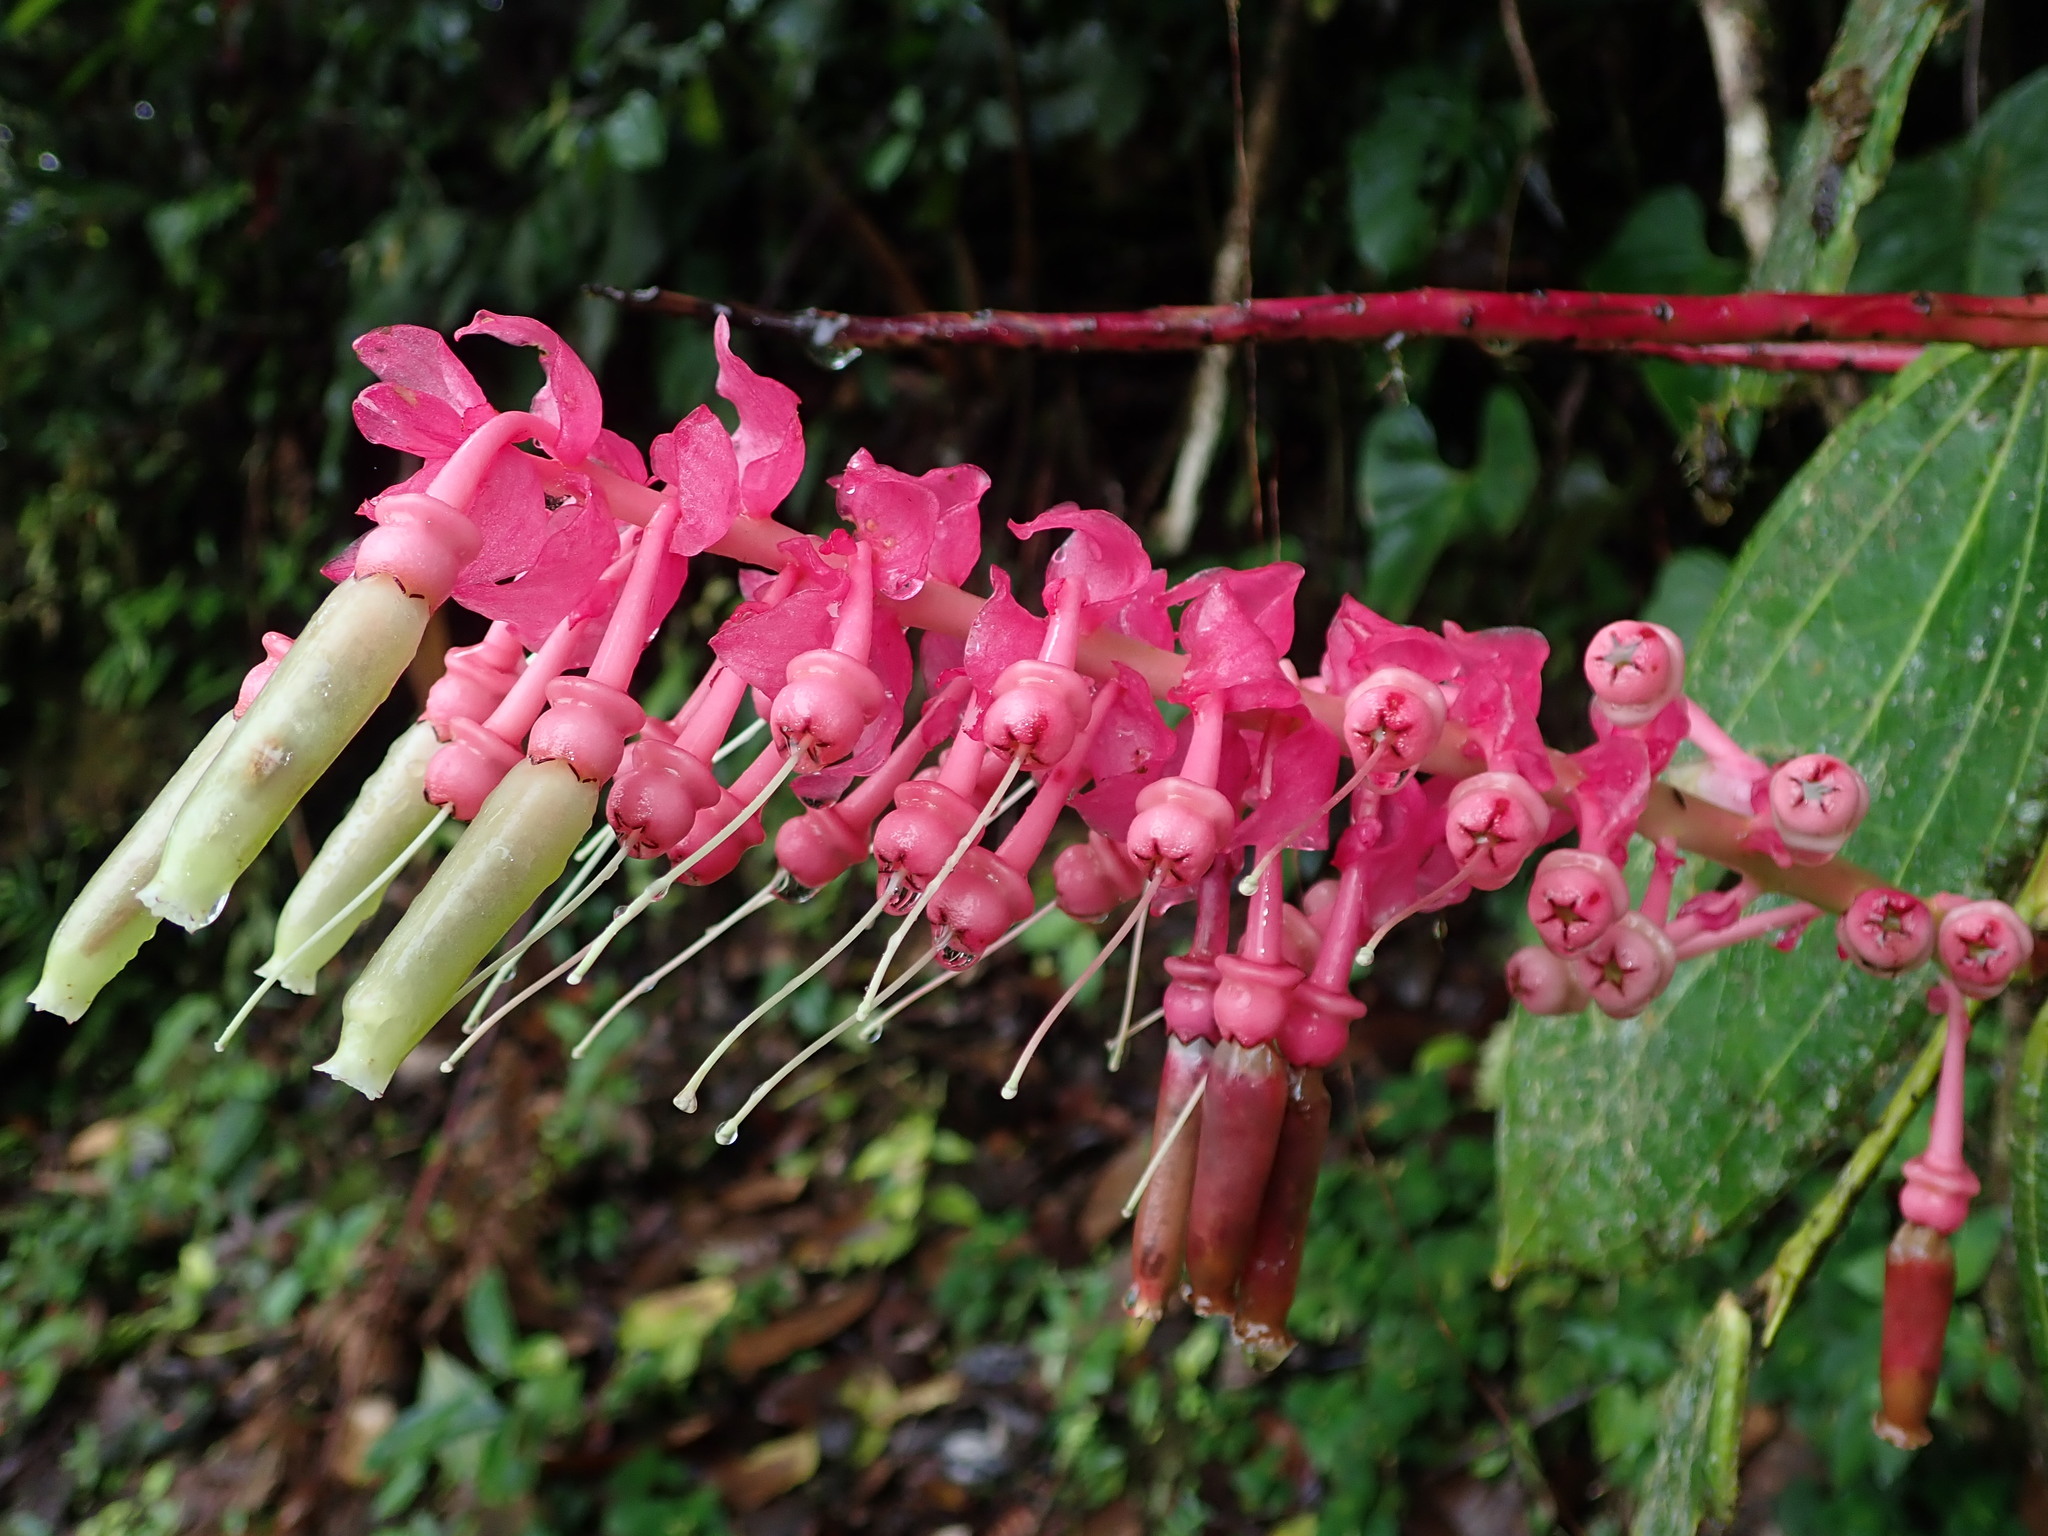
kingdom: Plantae
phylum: Tracheophyta
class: Magnoliopsida
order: Ericales
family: Ericaceae
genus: Cavendishia
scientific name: Cavendishia grandifolia
